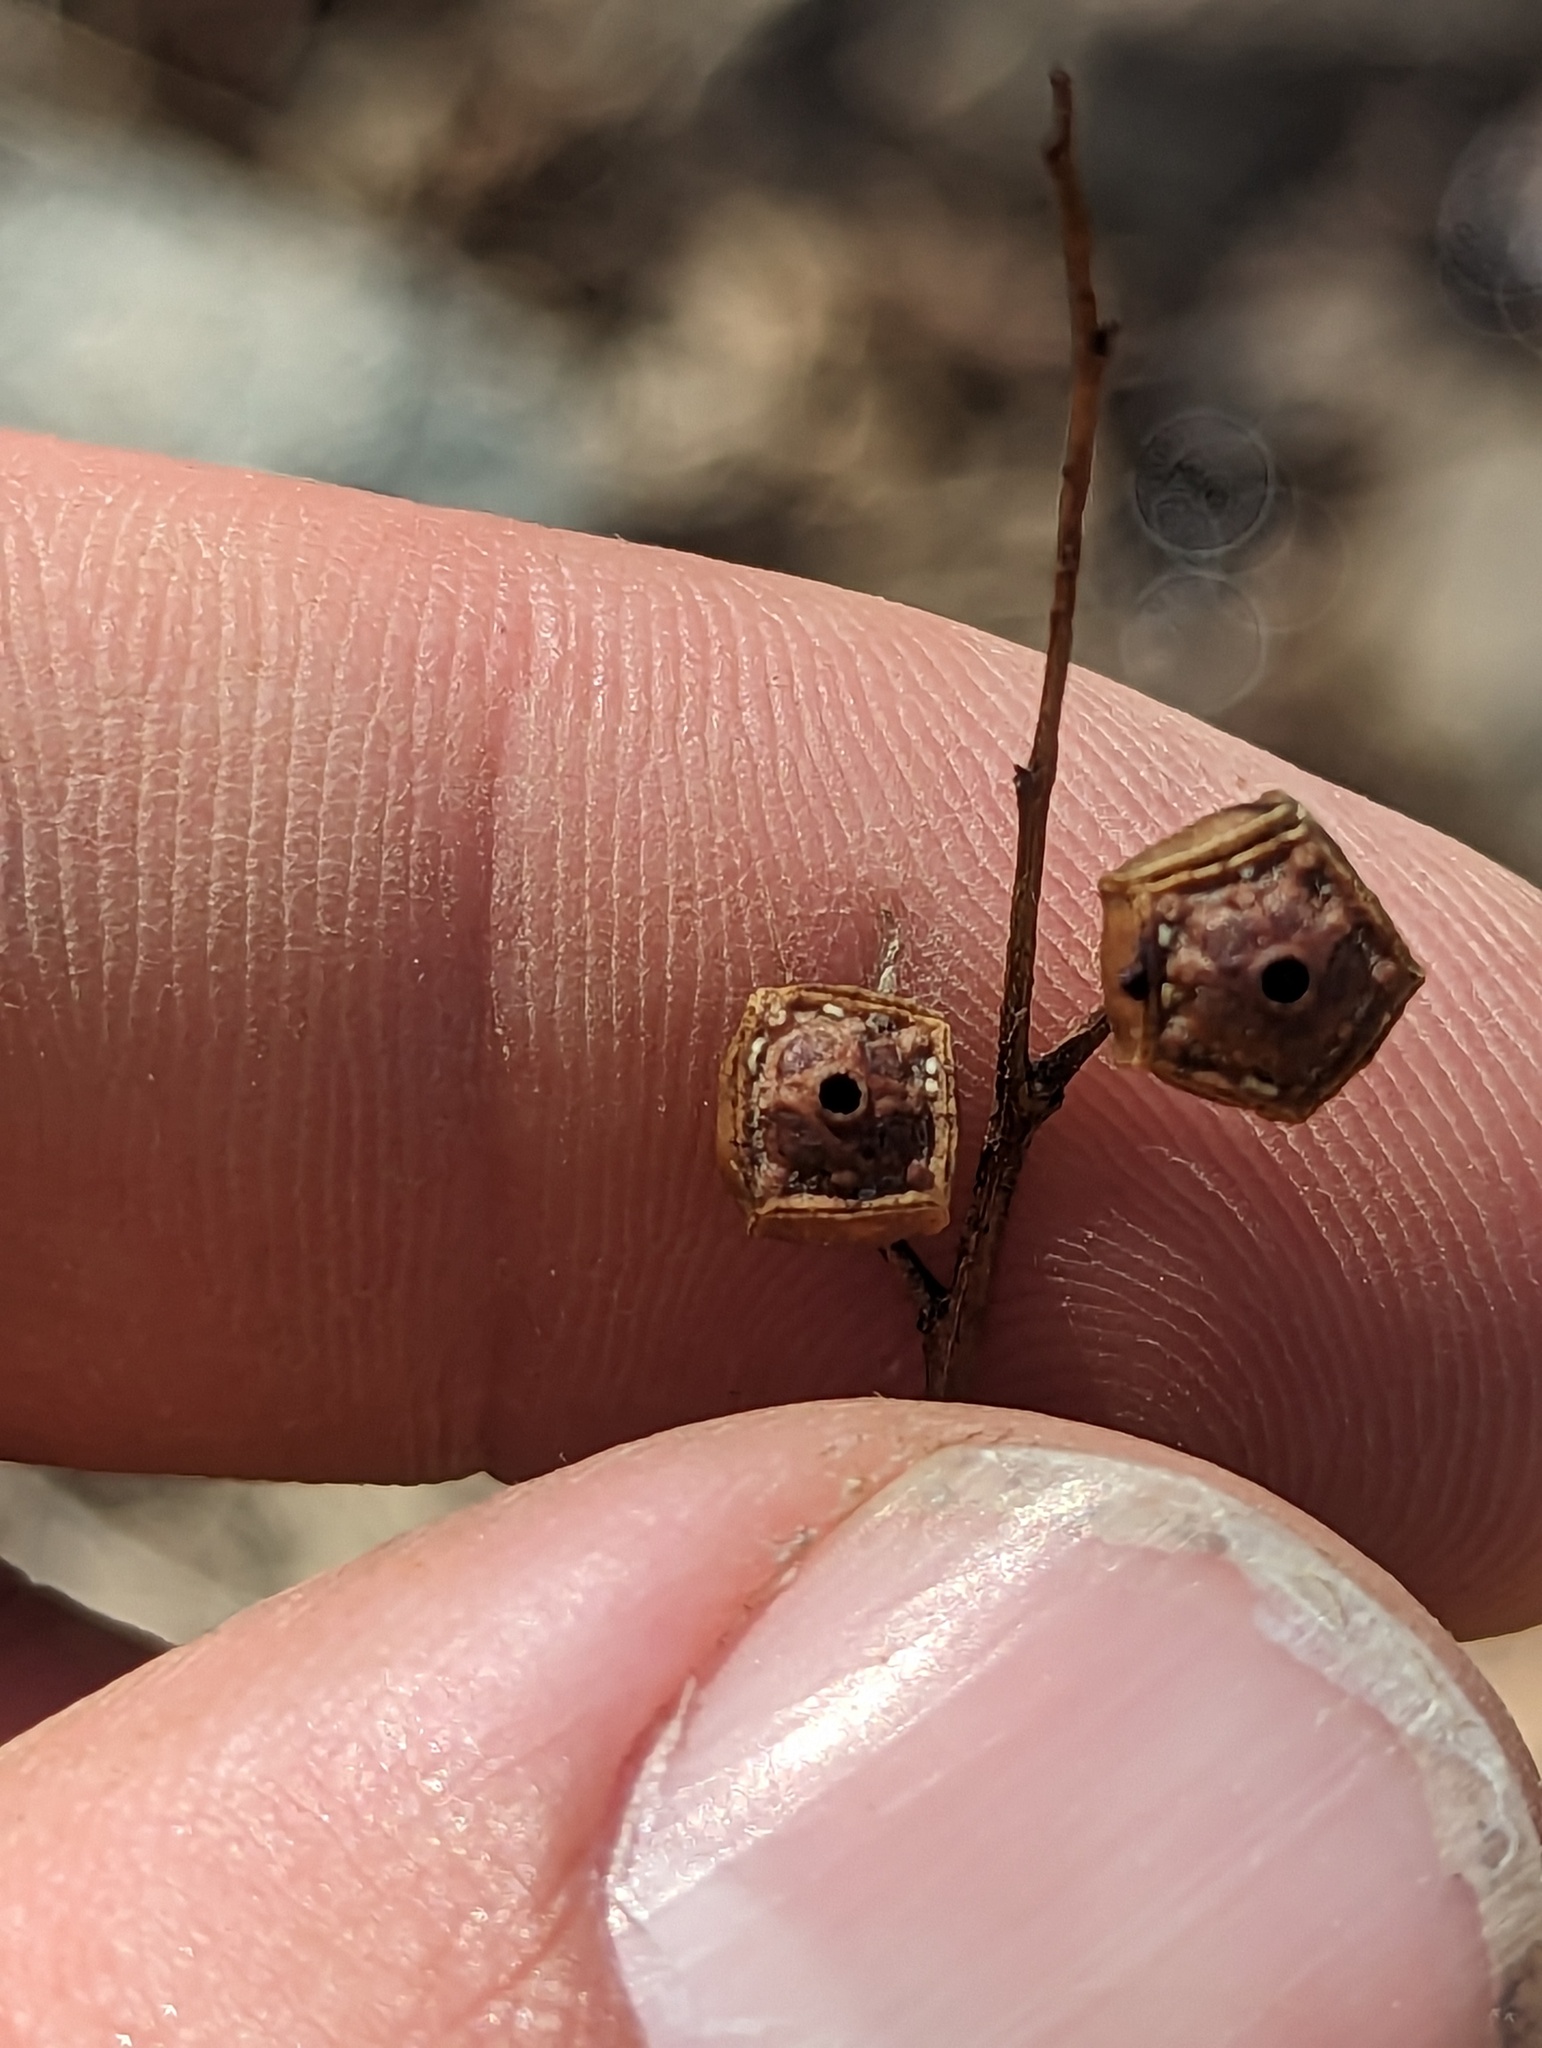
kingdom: Plantae
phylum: Tracheophyta
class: Magnoliopsida
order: Myrtales
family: Onagraceae
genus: Ludwigia
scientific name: Ludwigia alternifolia
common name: Rattlebox
